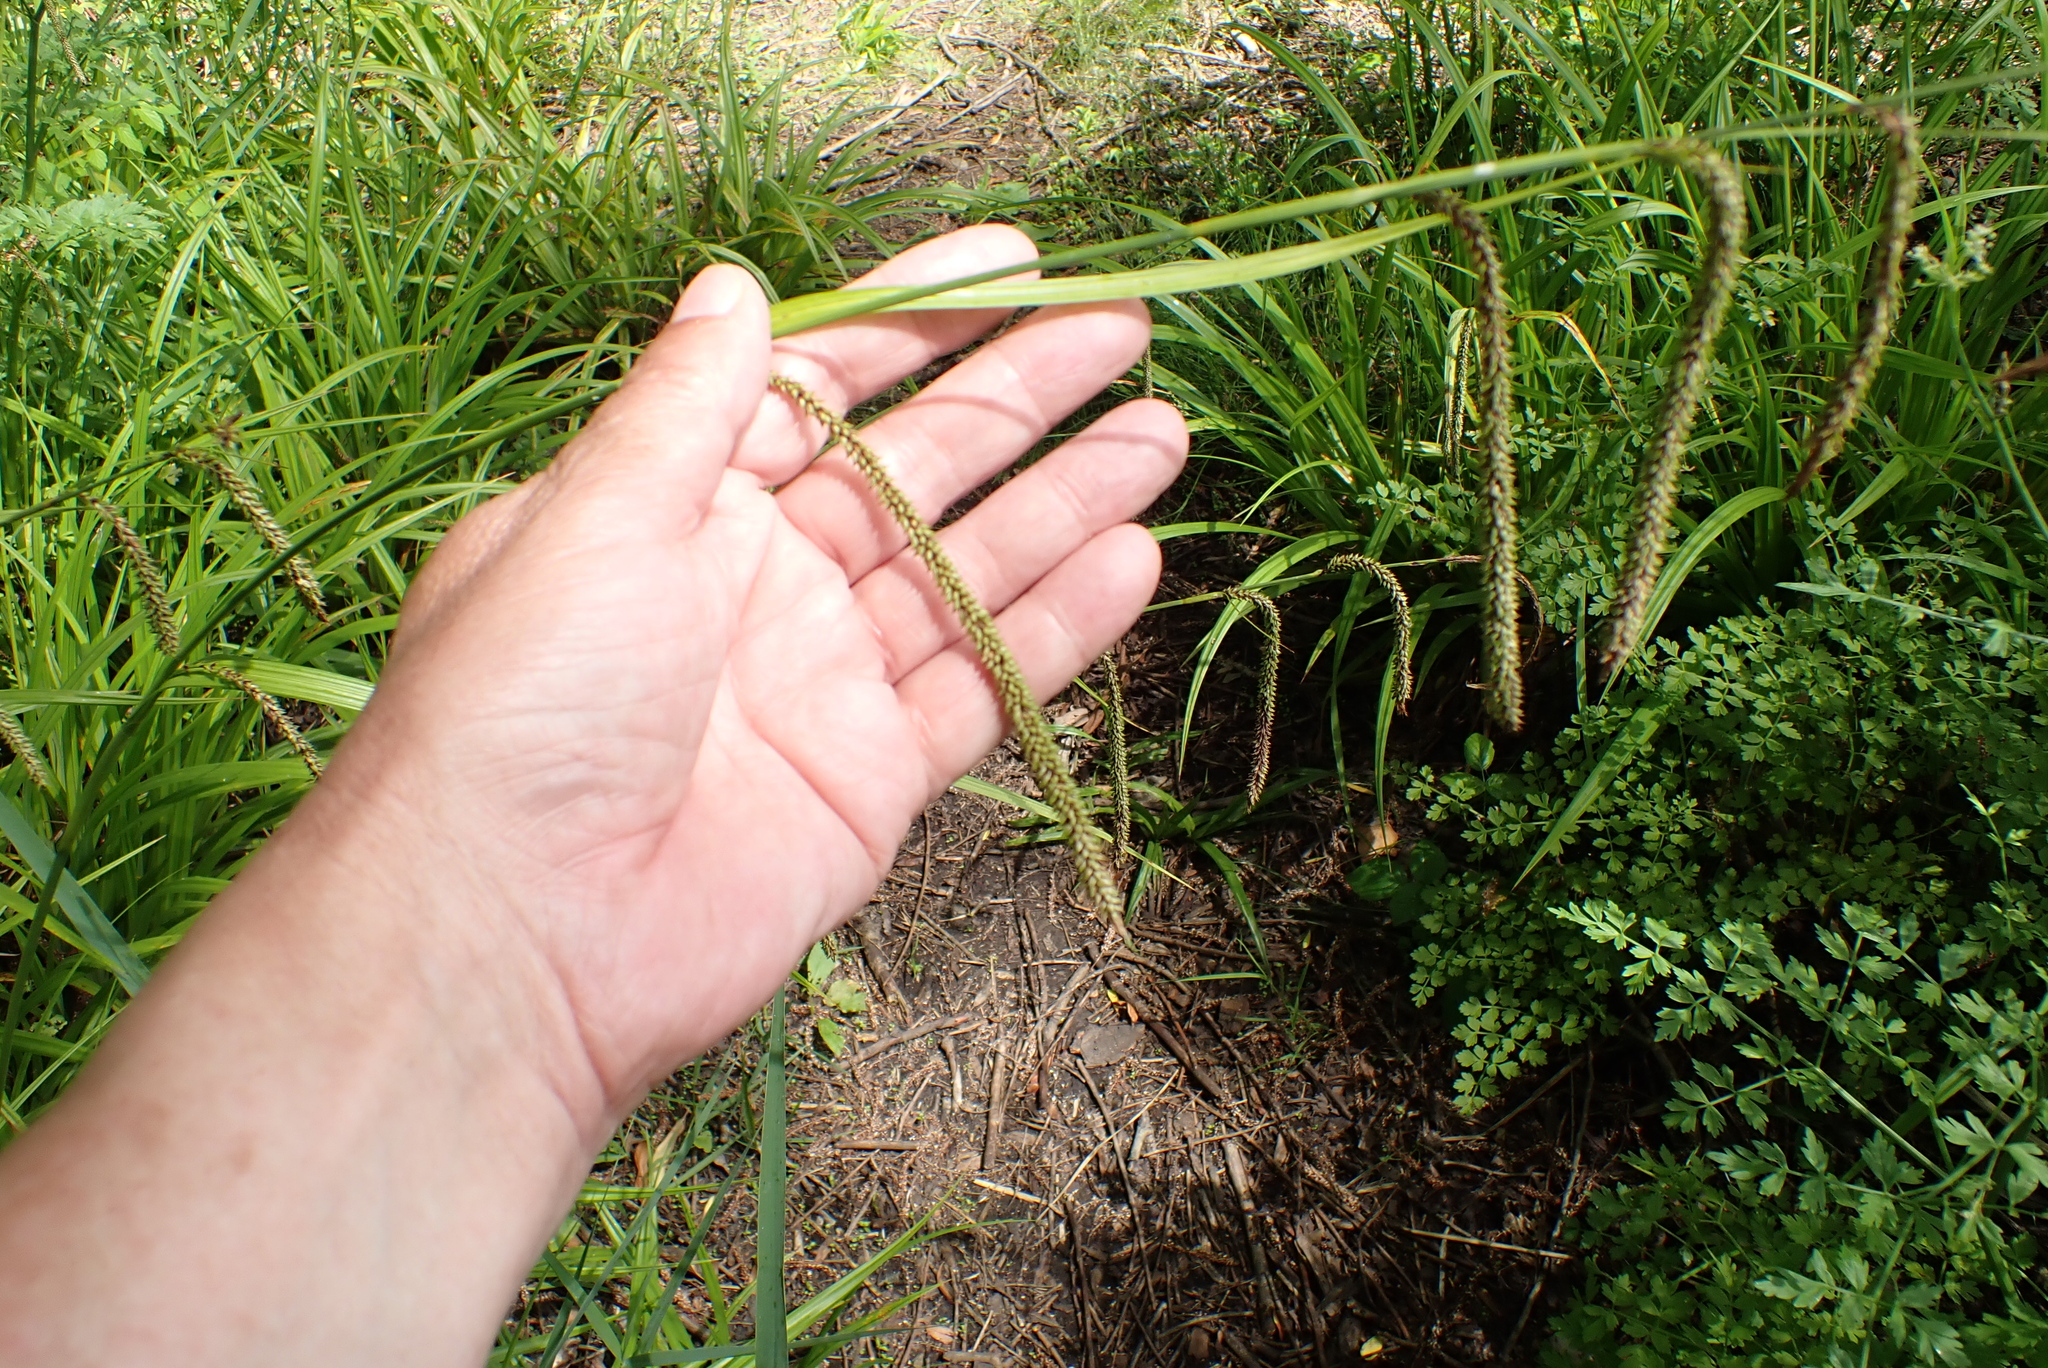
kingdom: Plantae
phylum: Tracheophyta
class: Liliopsida
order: Poales
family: Cyperaceae
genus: Carex
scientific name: Carex pendula
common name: Pendulous sedge
